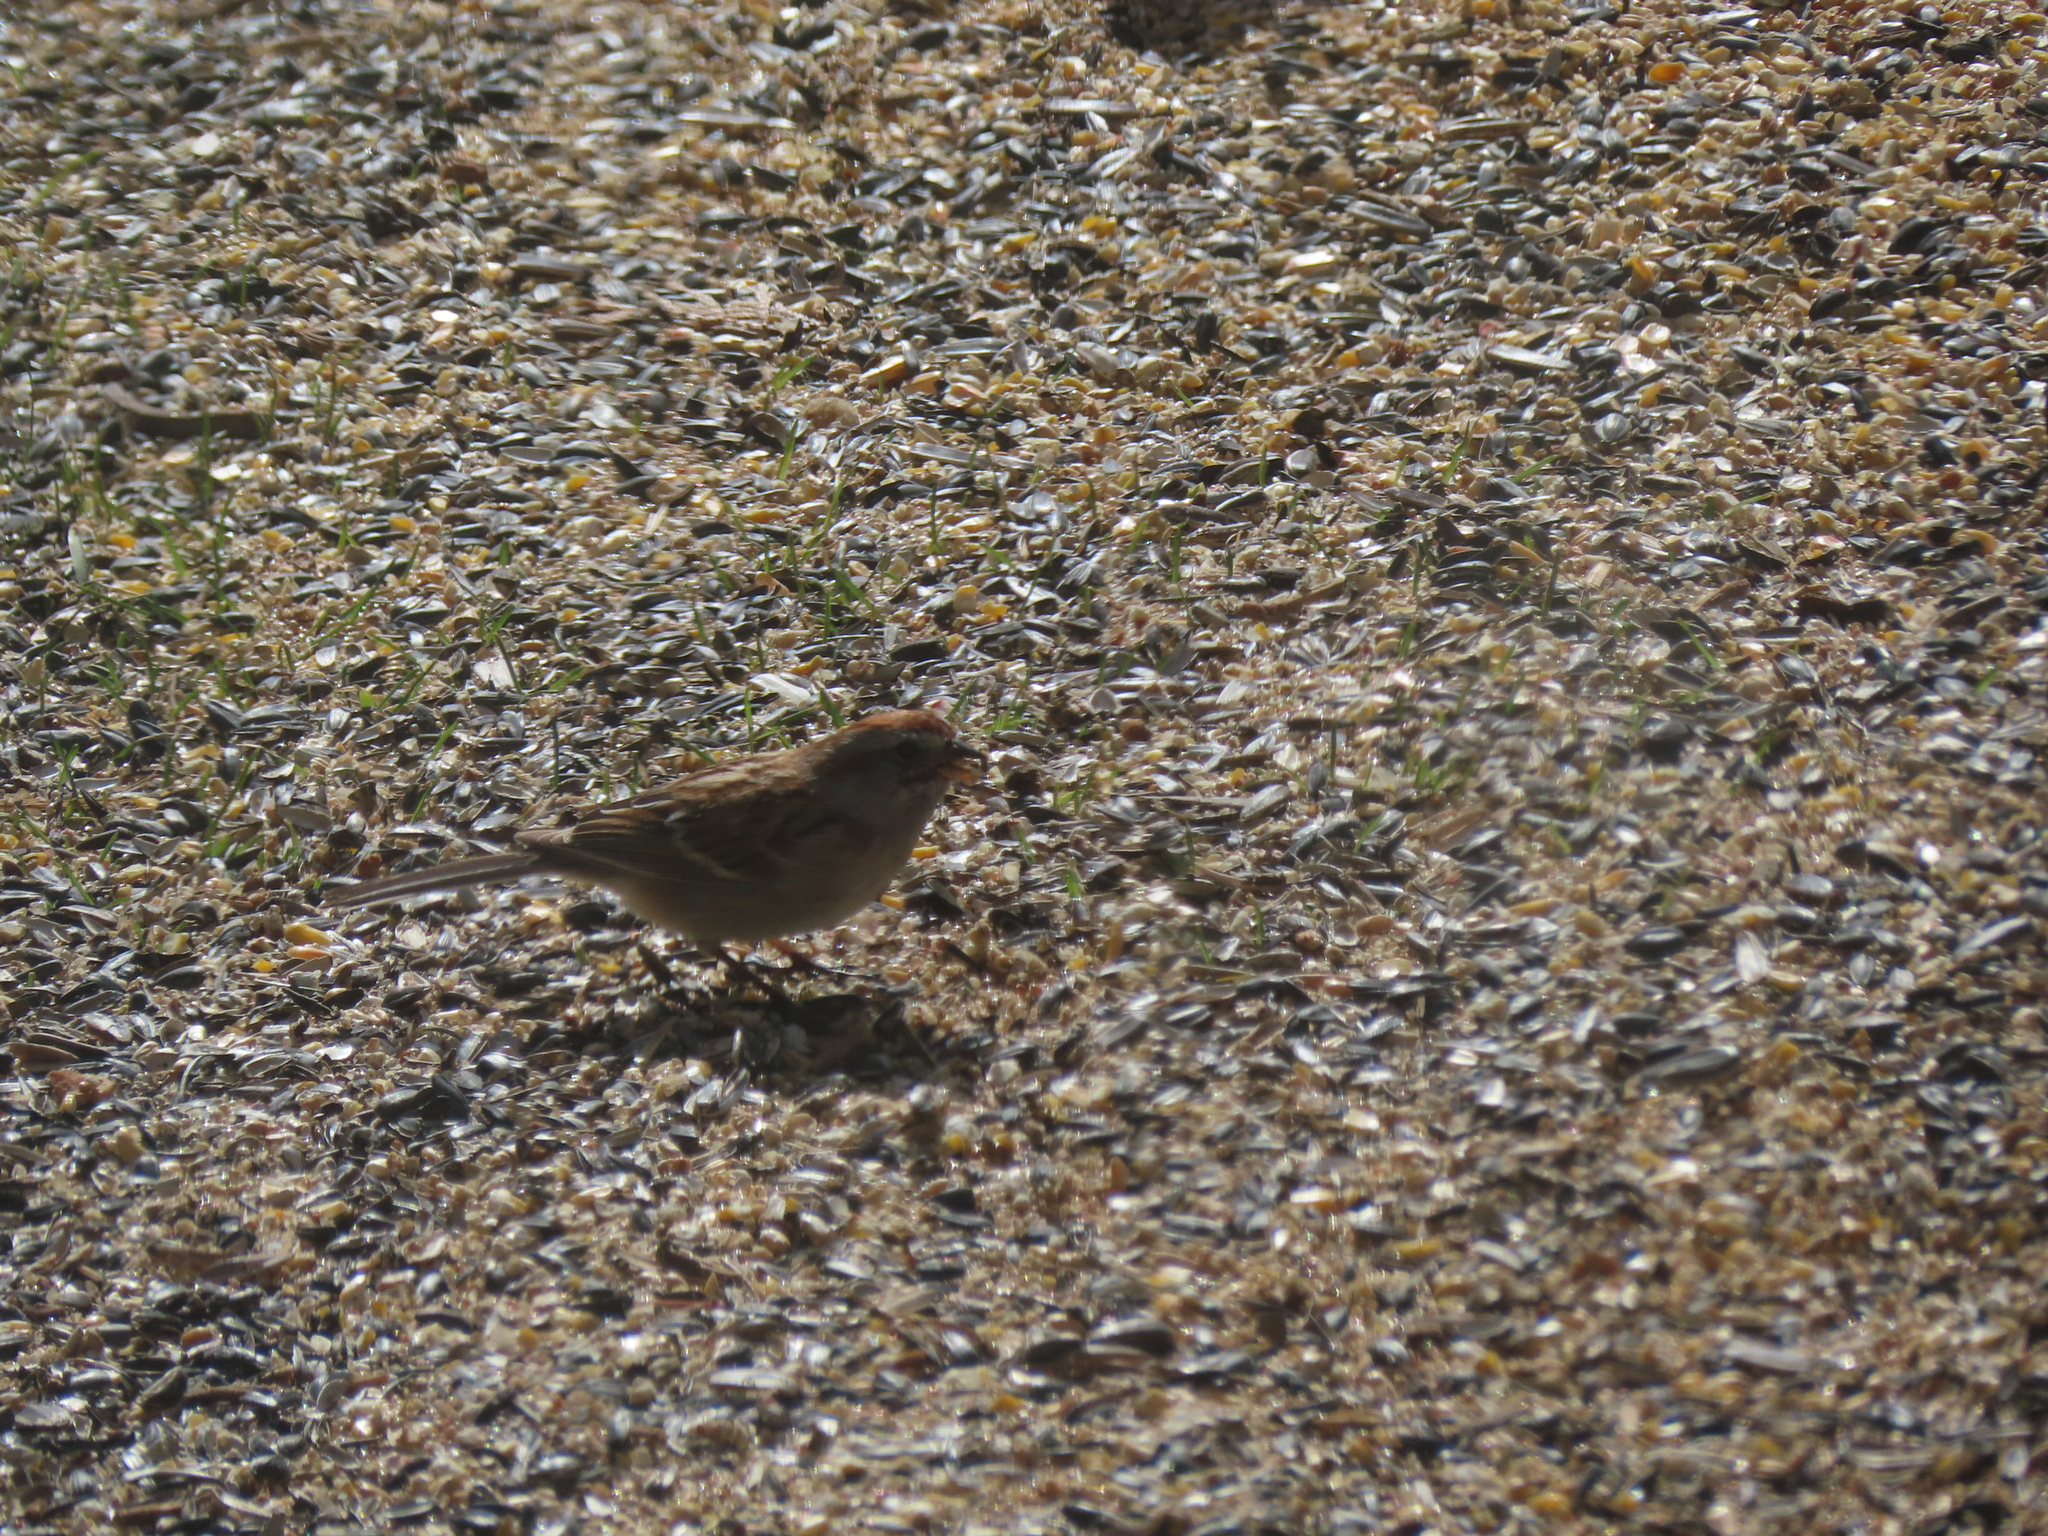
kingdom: Animalia
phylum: Chordata
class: Aves
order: Passeriformes
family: Passerellidae
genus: Spizelloides
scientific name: Spizelloides arborea
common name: American tree sparrow
